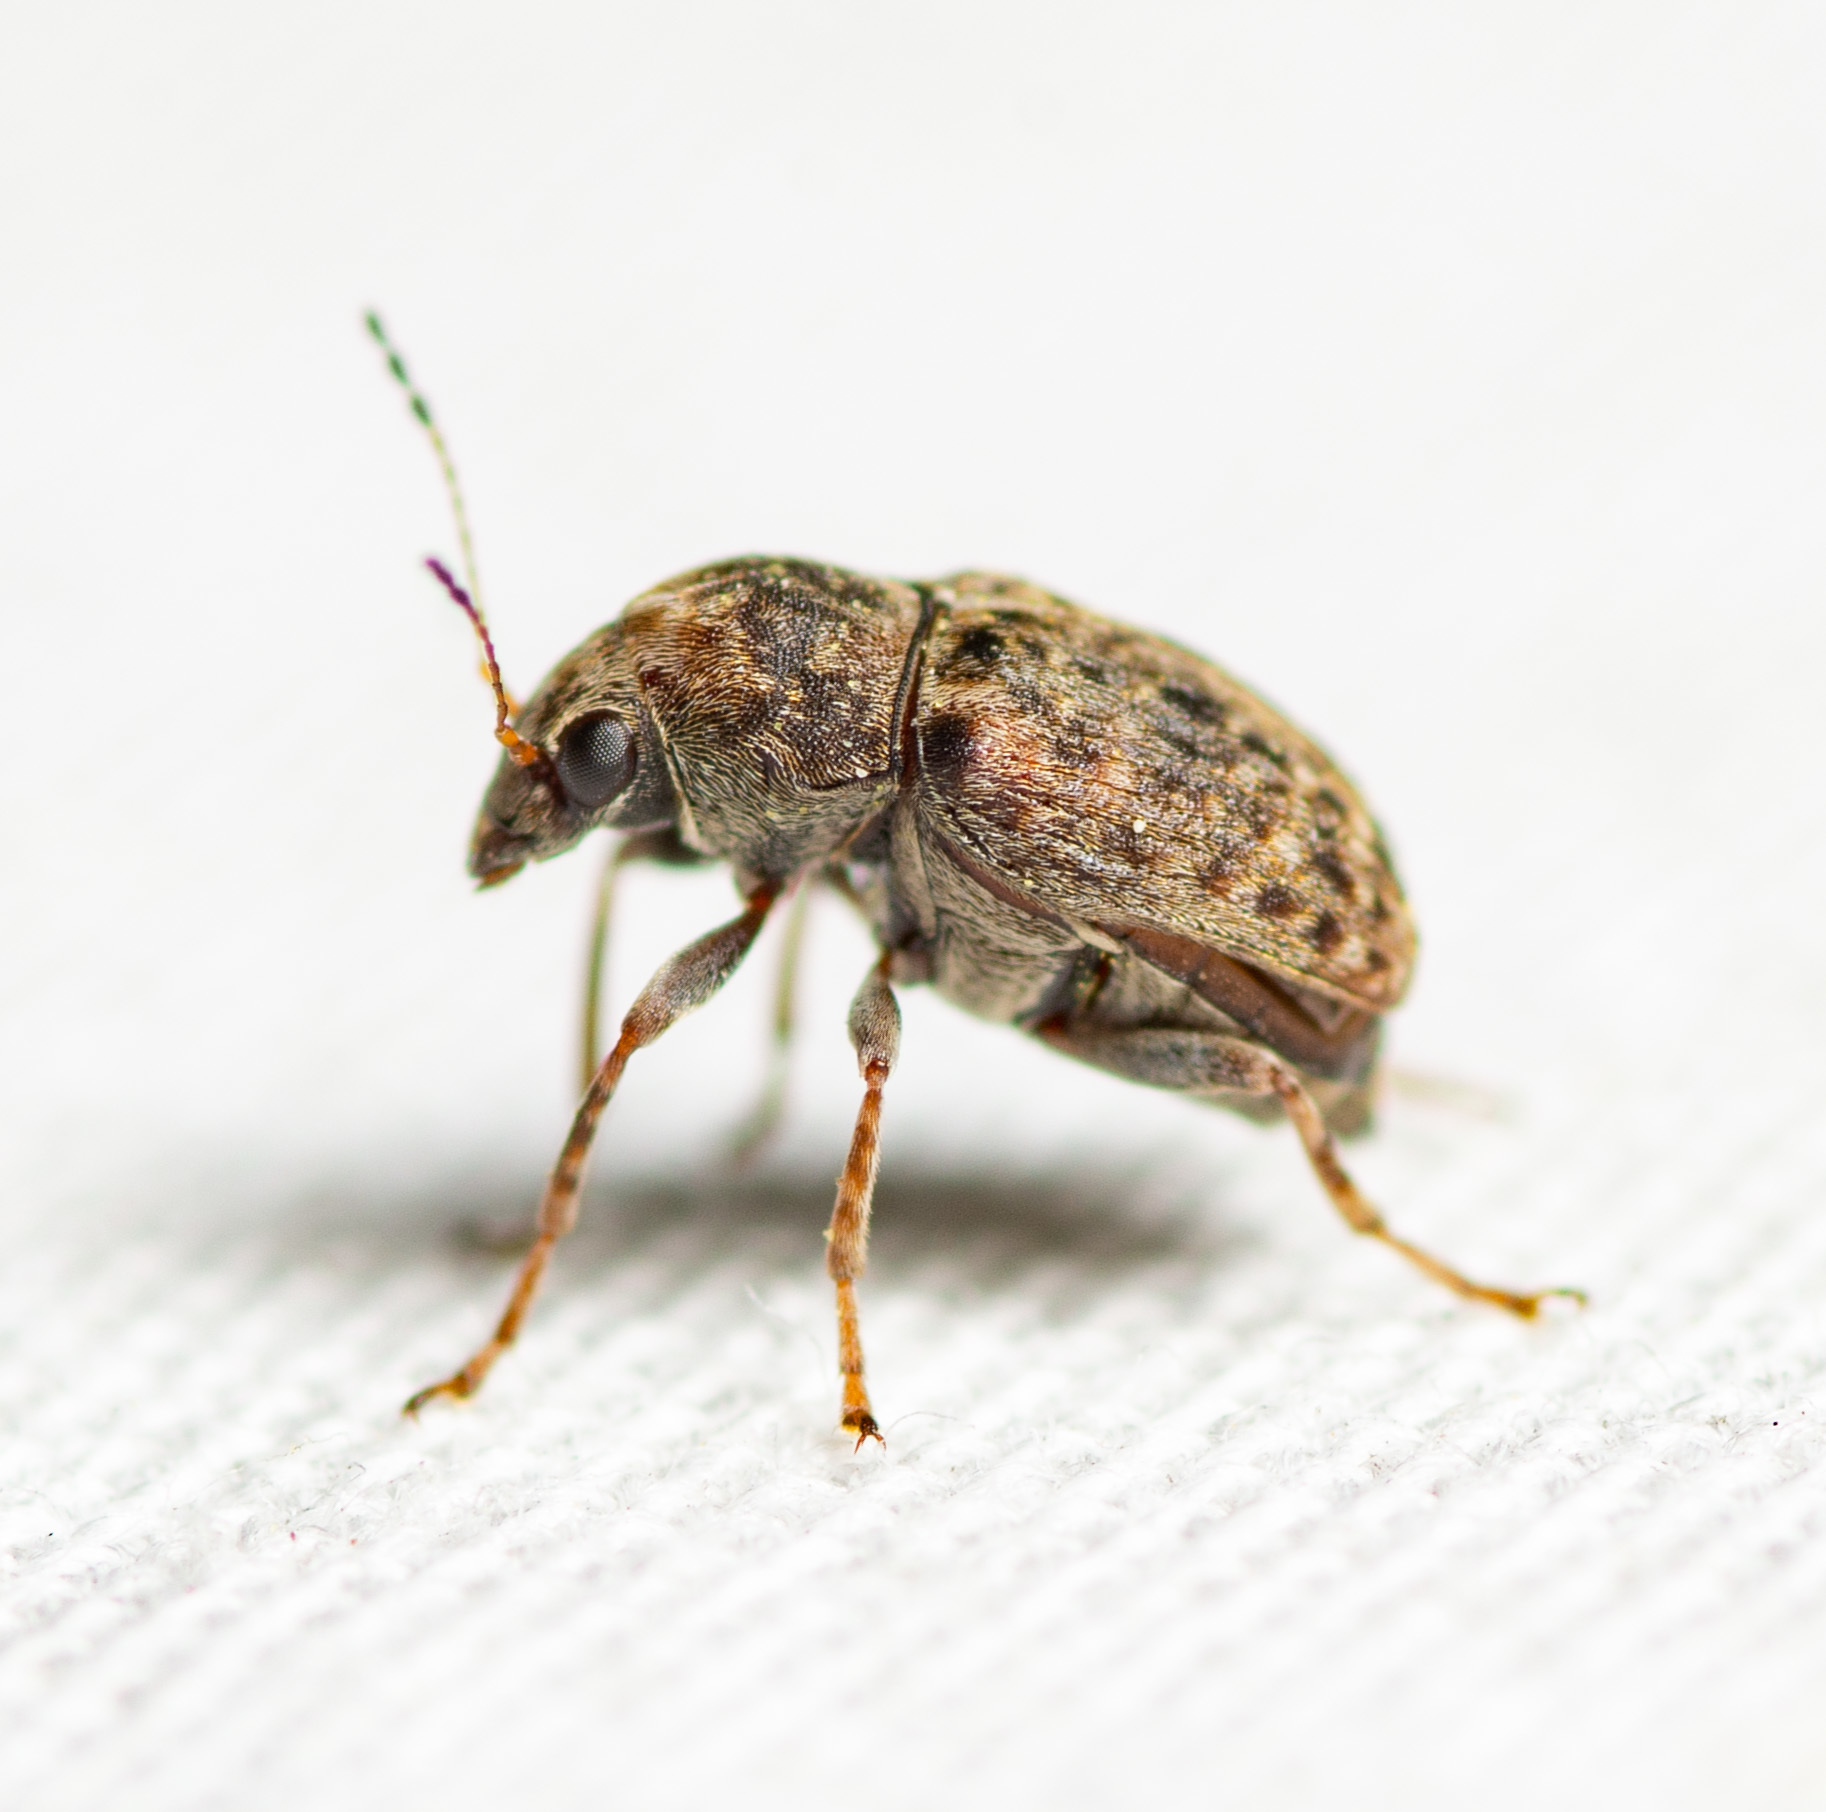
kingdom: Animalia
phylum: Arthropoda
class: Insecta
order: Coleoptera
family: Anthribidae
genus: Araecerus
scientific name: Araecerus fasciculatus
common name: Coffee bean weevil
